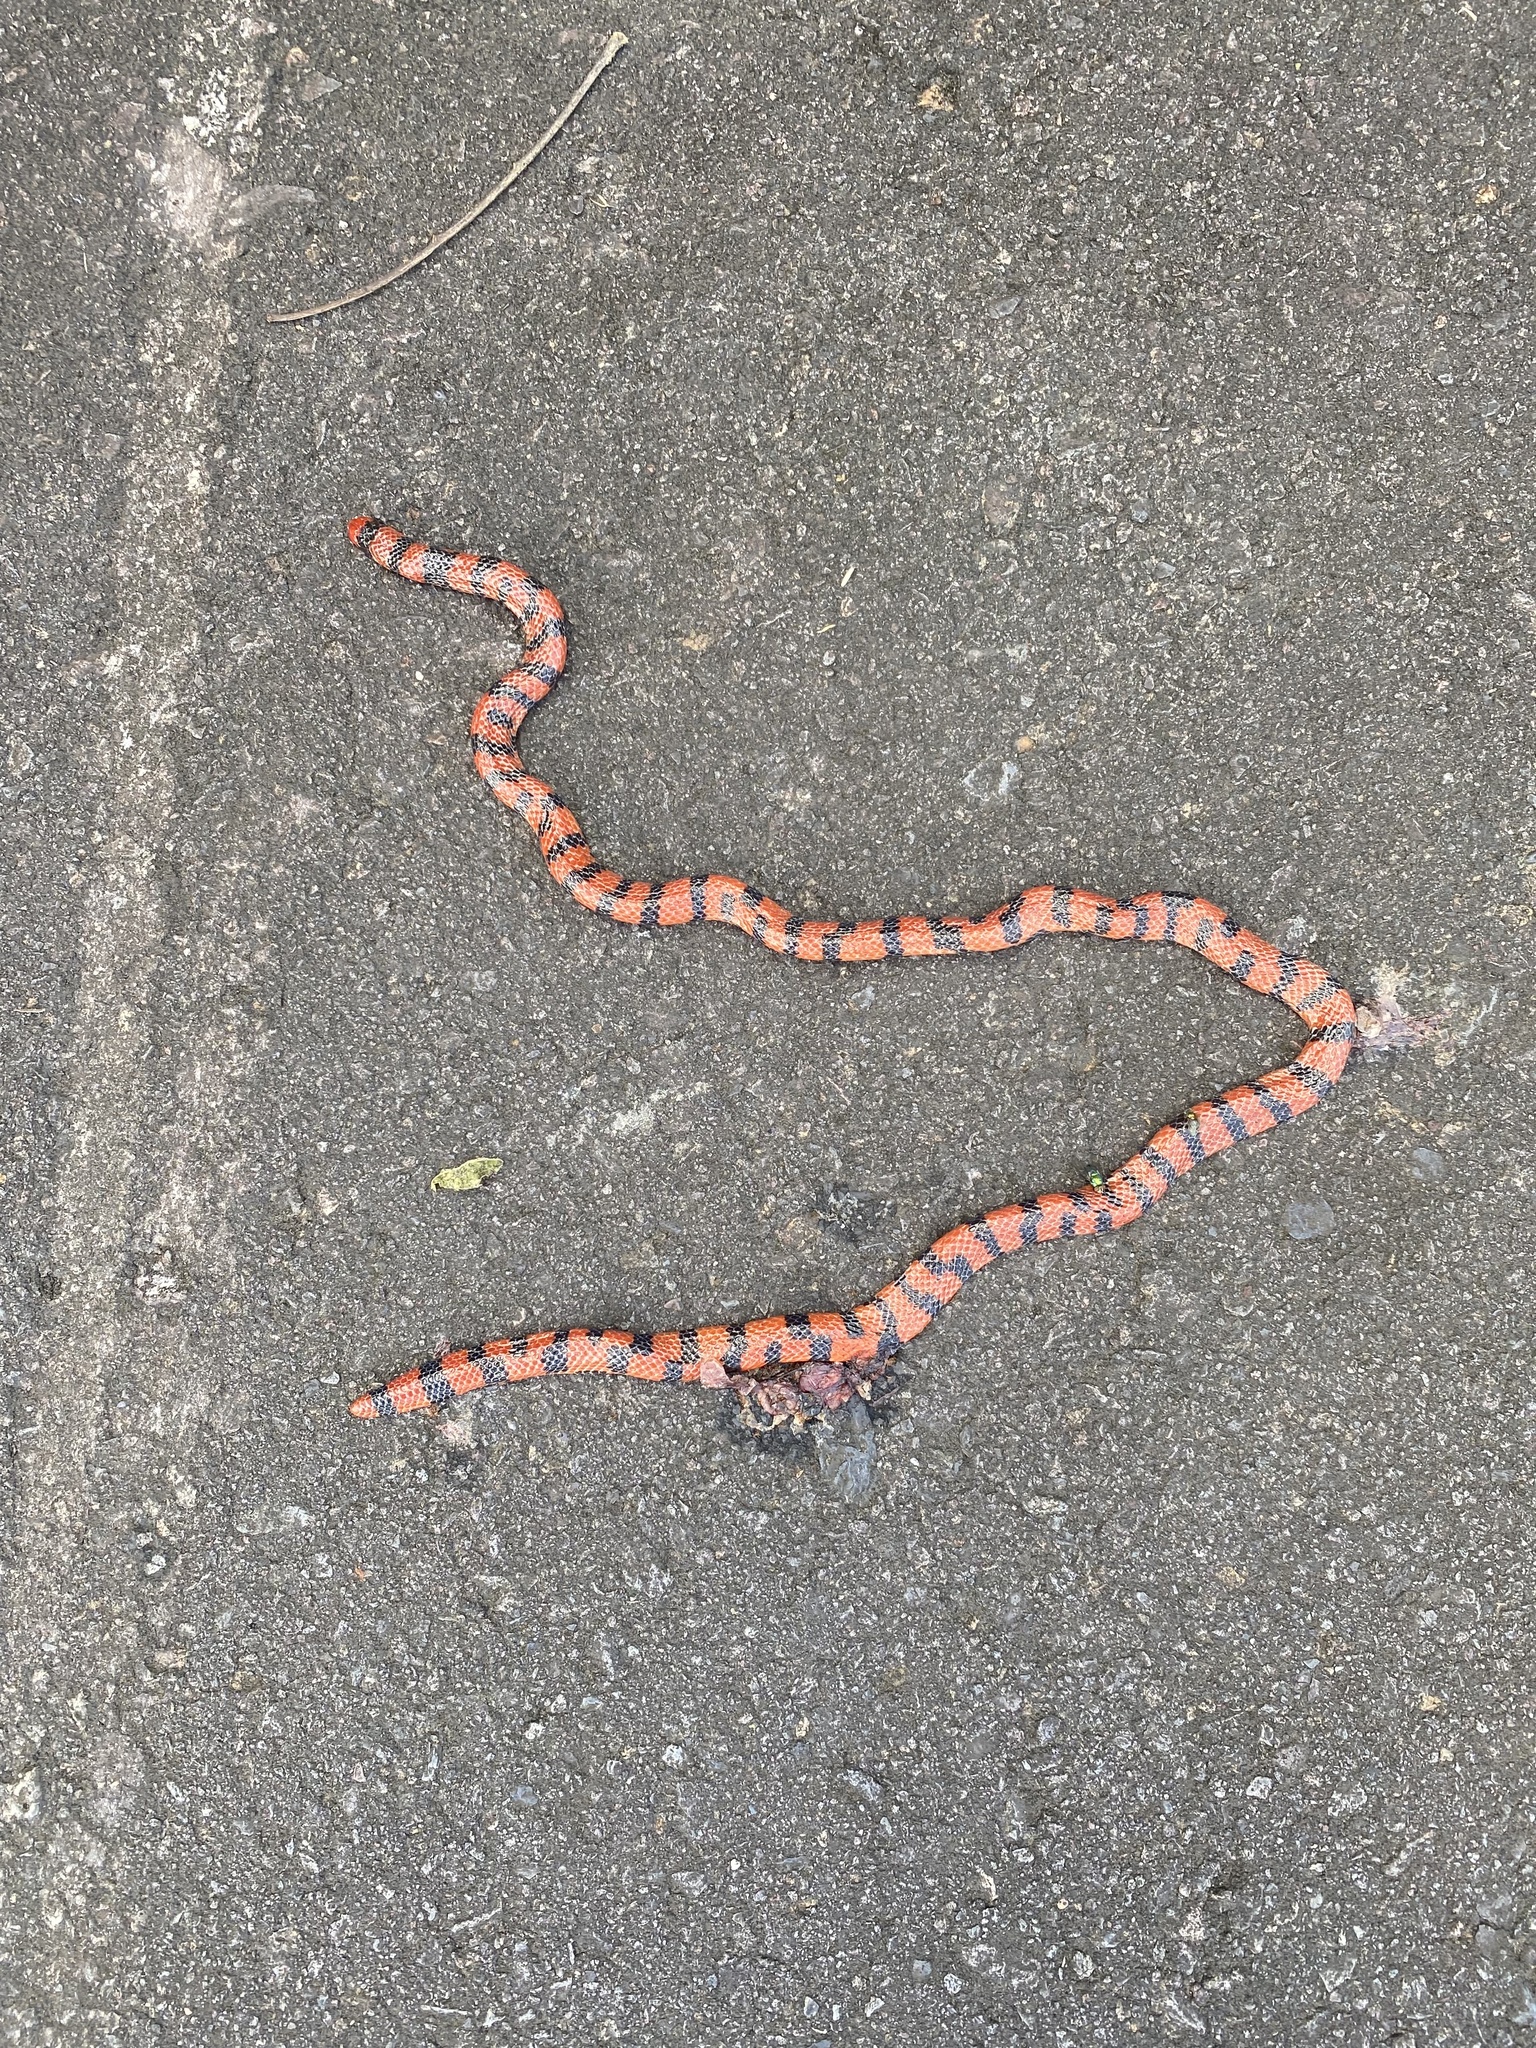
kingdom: Animalia
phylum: Chordata
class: Squamata
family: Aniliidae
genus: Anilius
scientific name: Anilius scytale
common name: Coral pipe snakes
